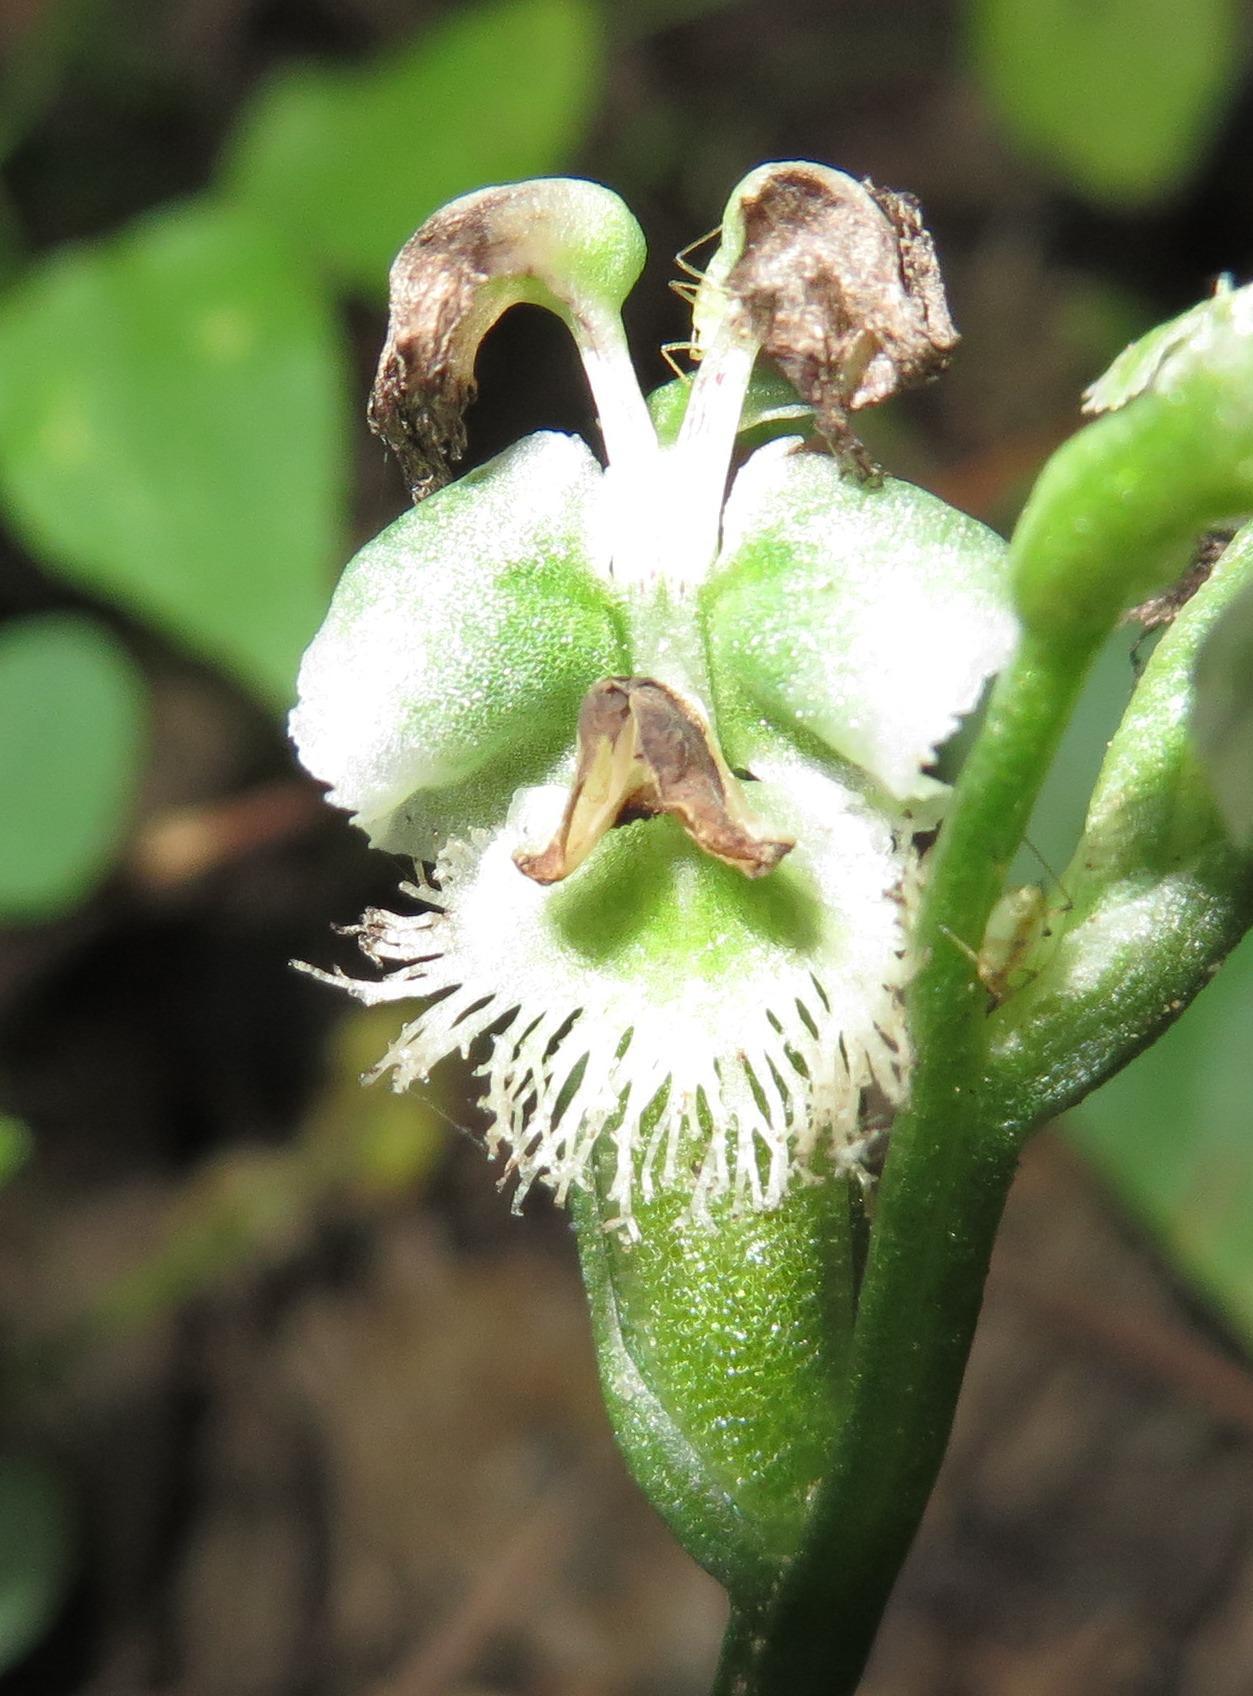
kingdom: Plantae
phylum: Tracheophyta
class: Liliopsida
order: Asparagales
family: Orchidaceae
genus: Huttonaea
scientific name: Huttonaea pulchra
